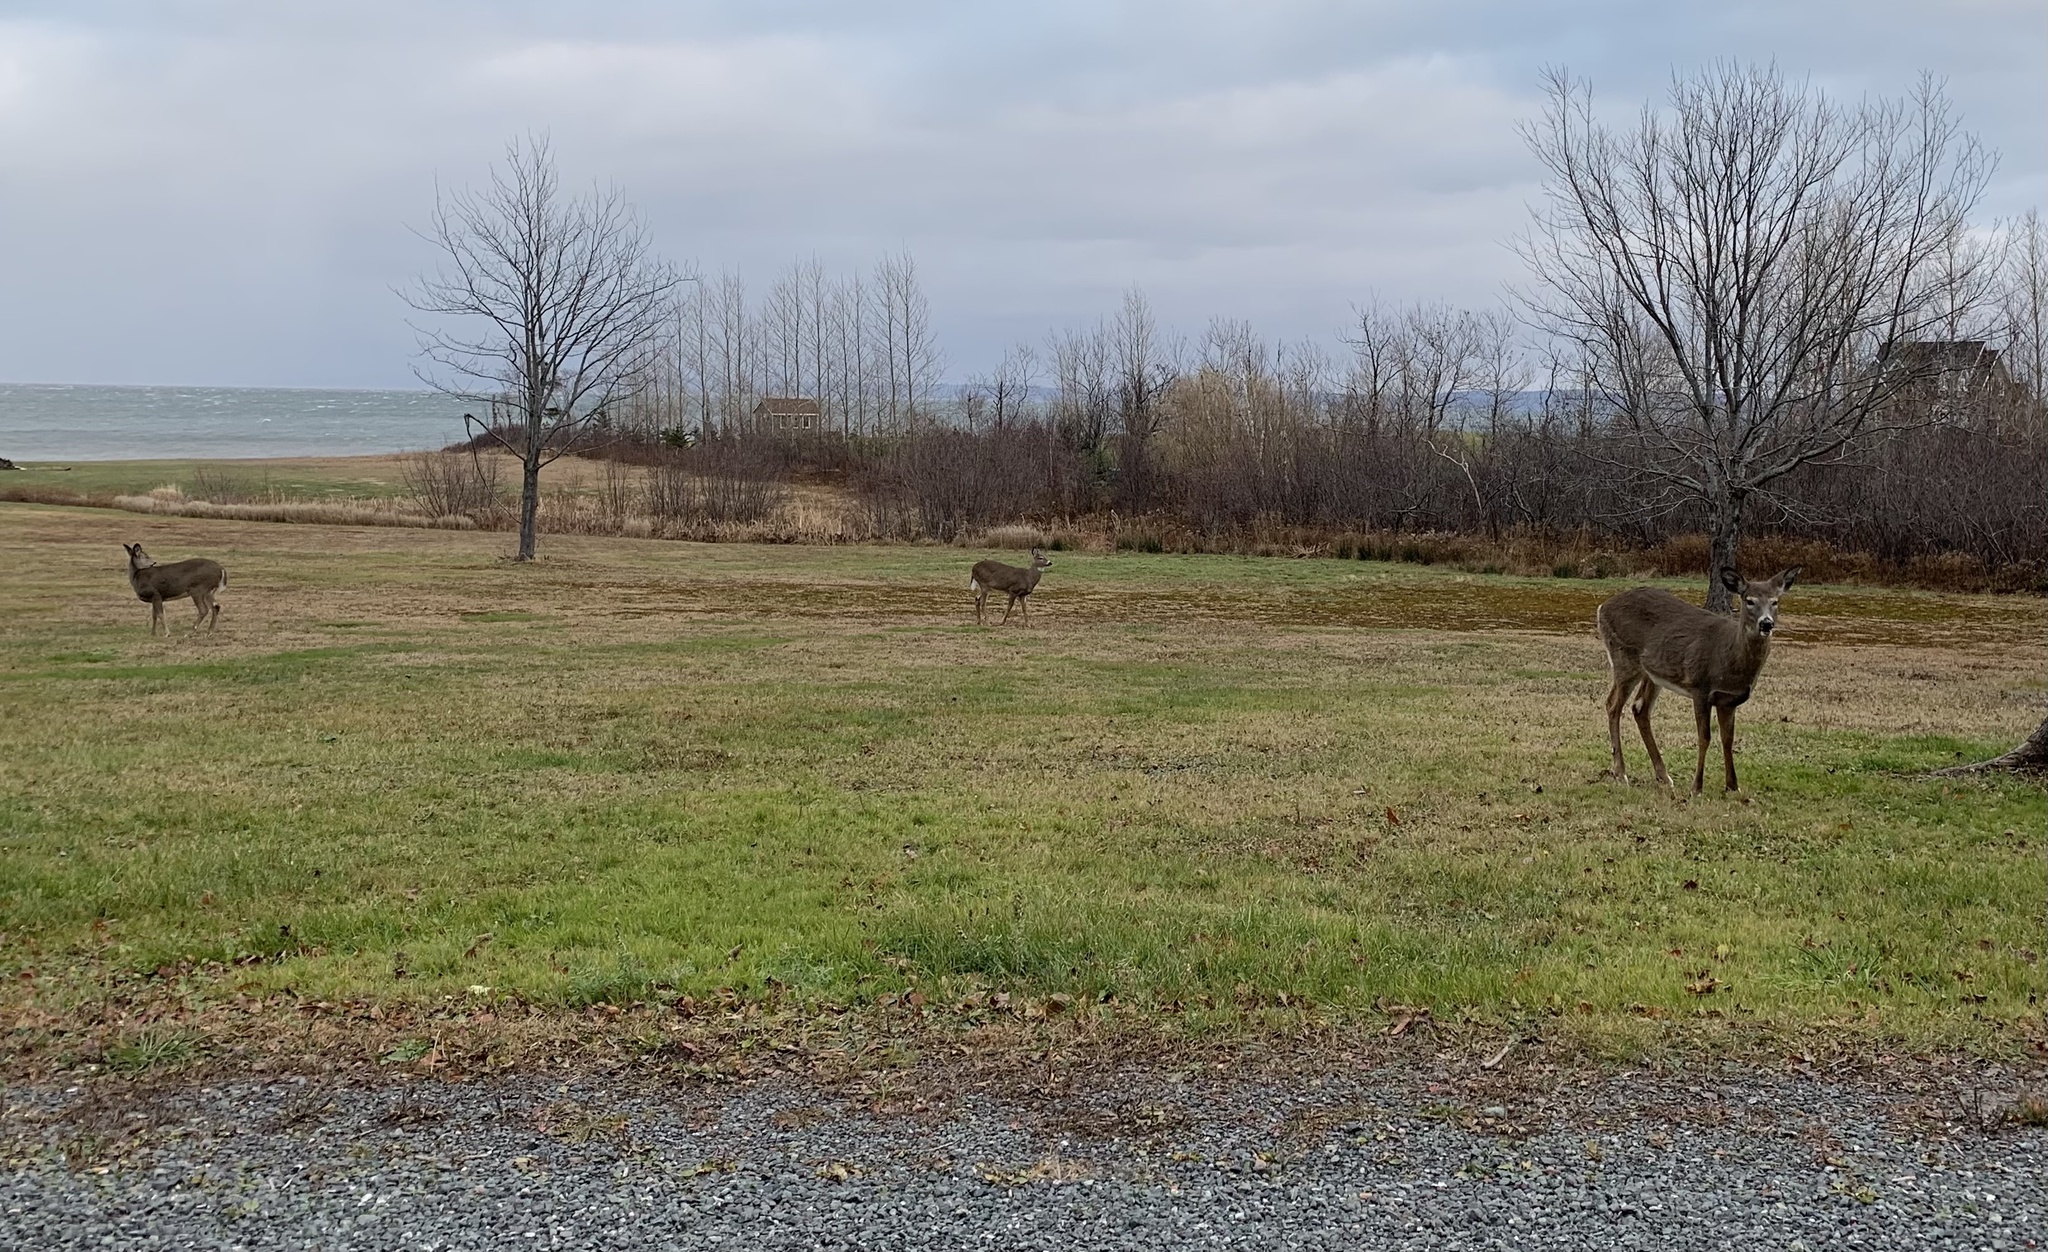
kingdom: Animalia
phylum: Chordata
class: Mammalia
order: Artiodactyla
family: Cervidae
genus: Odocoileus
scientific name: Odocoileus virginianus
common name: White-tailed deer
